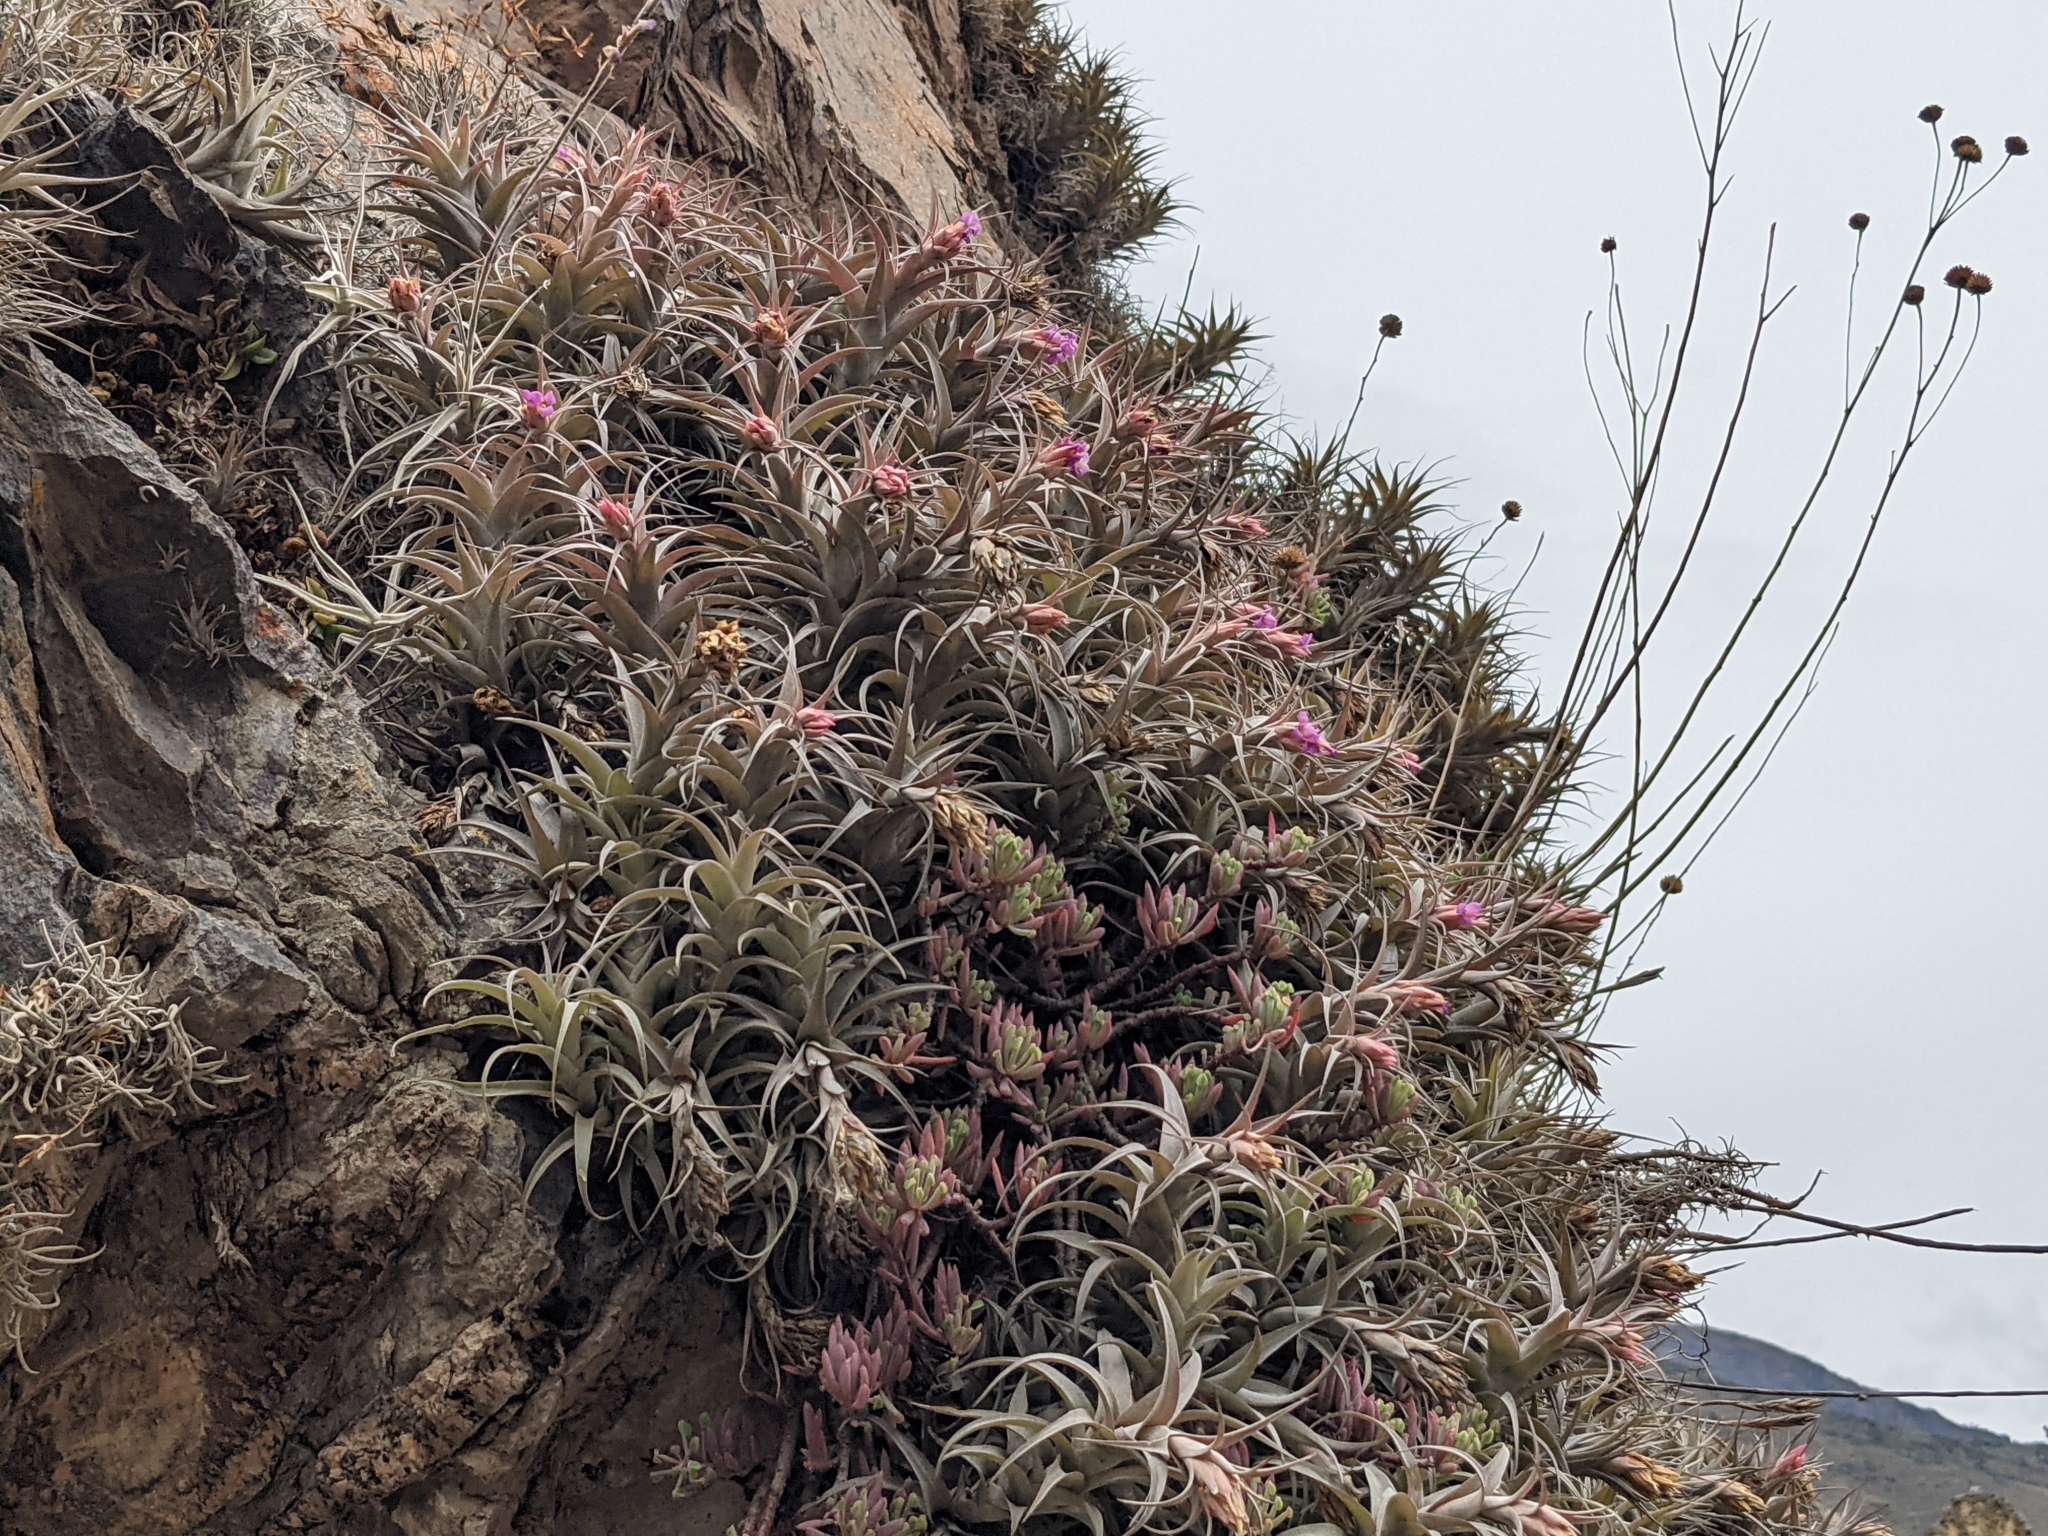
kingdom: Plantae
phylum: Tracheophyta
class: Liliopsida
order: Poales
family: Bromeliaceae
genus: Tillandsia
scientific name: Tillandsia nana
